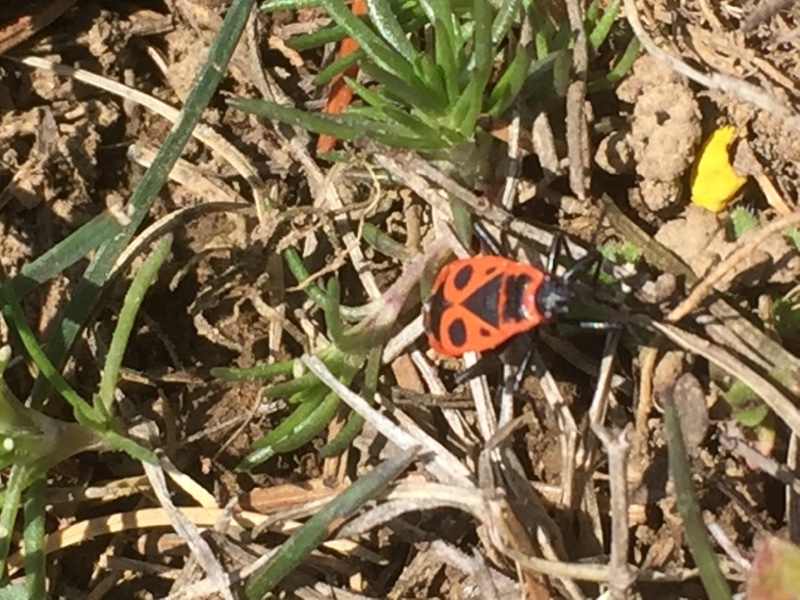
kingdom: Animalia
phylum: Arthropoda
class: Insecta
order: Hemiptera
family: Pyrrhocoridae
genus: Pyrrhocoris
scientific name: Pyrrhocoris apterus
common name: Firebug
